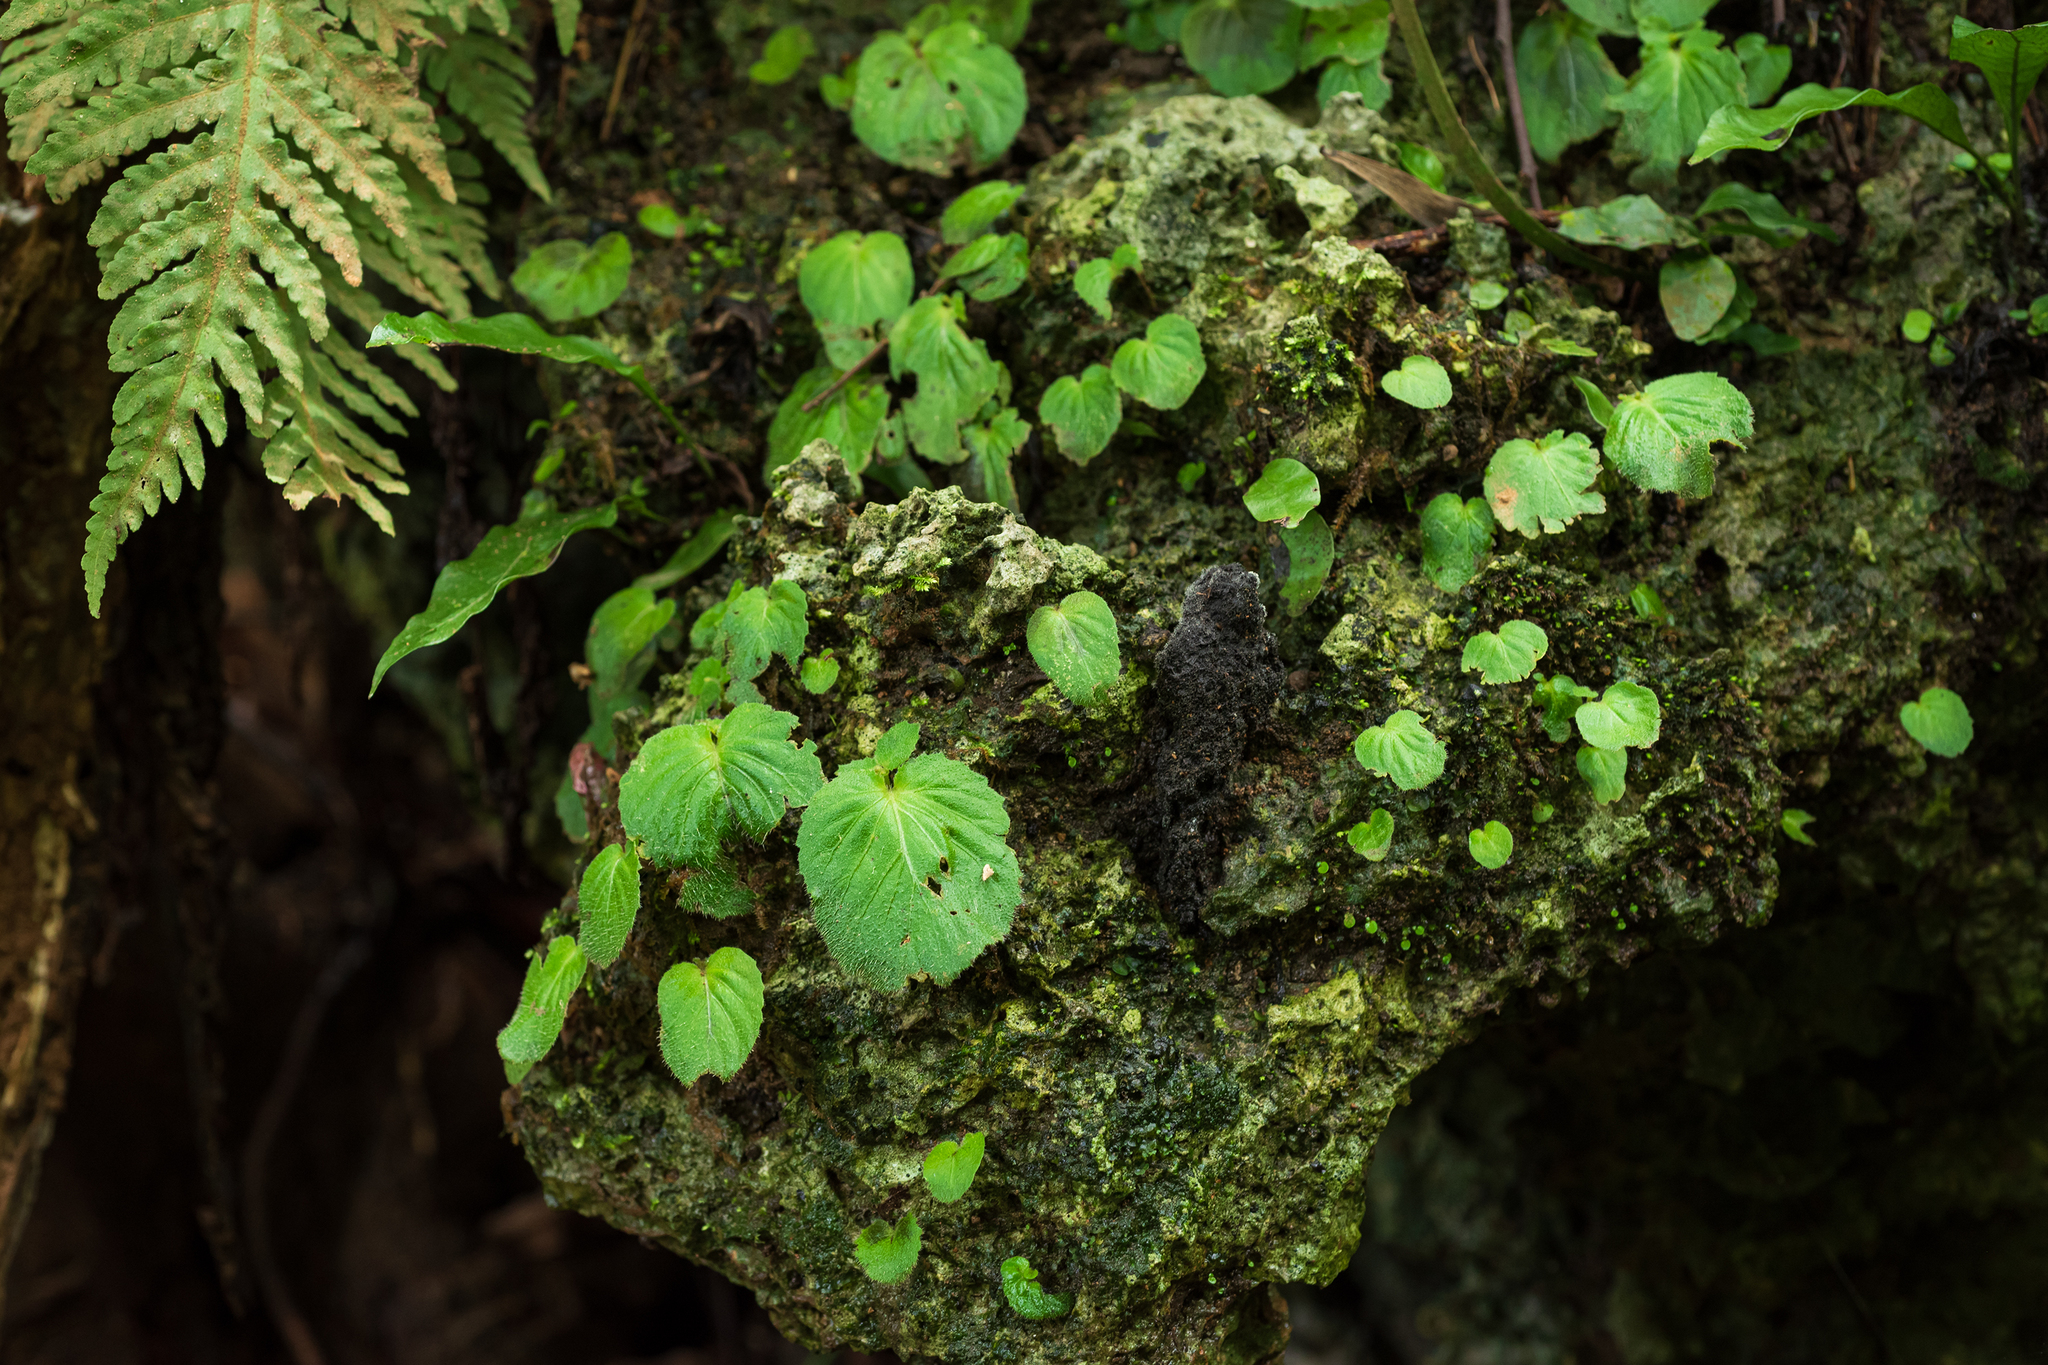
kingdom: Plantae
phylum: Tracheophyta
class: Magnoliopsida
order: Lamiales
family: Gesneriaceae
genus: Epithema
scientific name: Epithema ceylanicum
